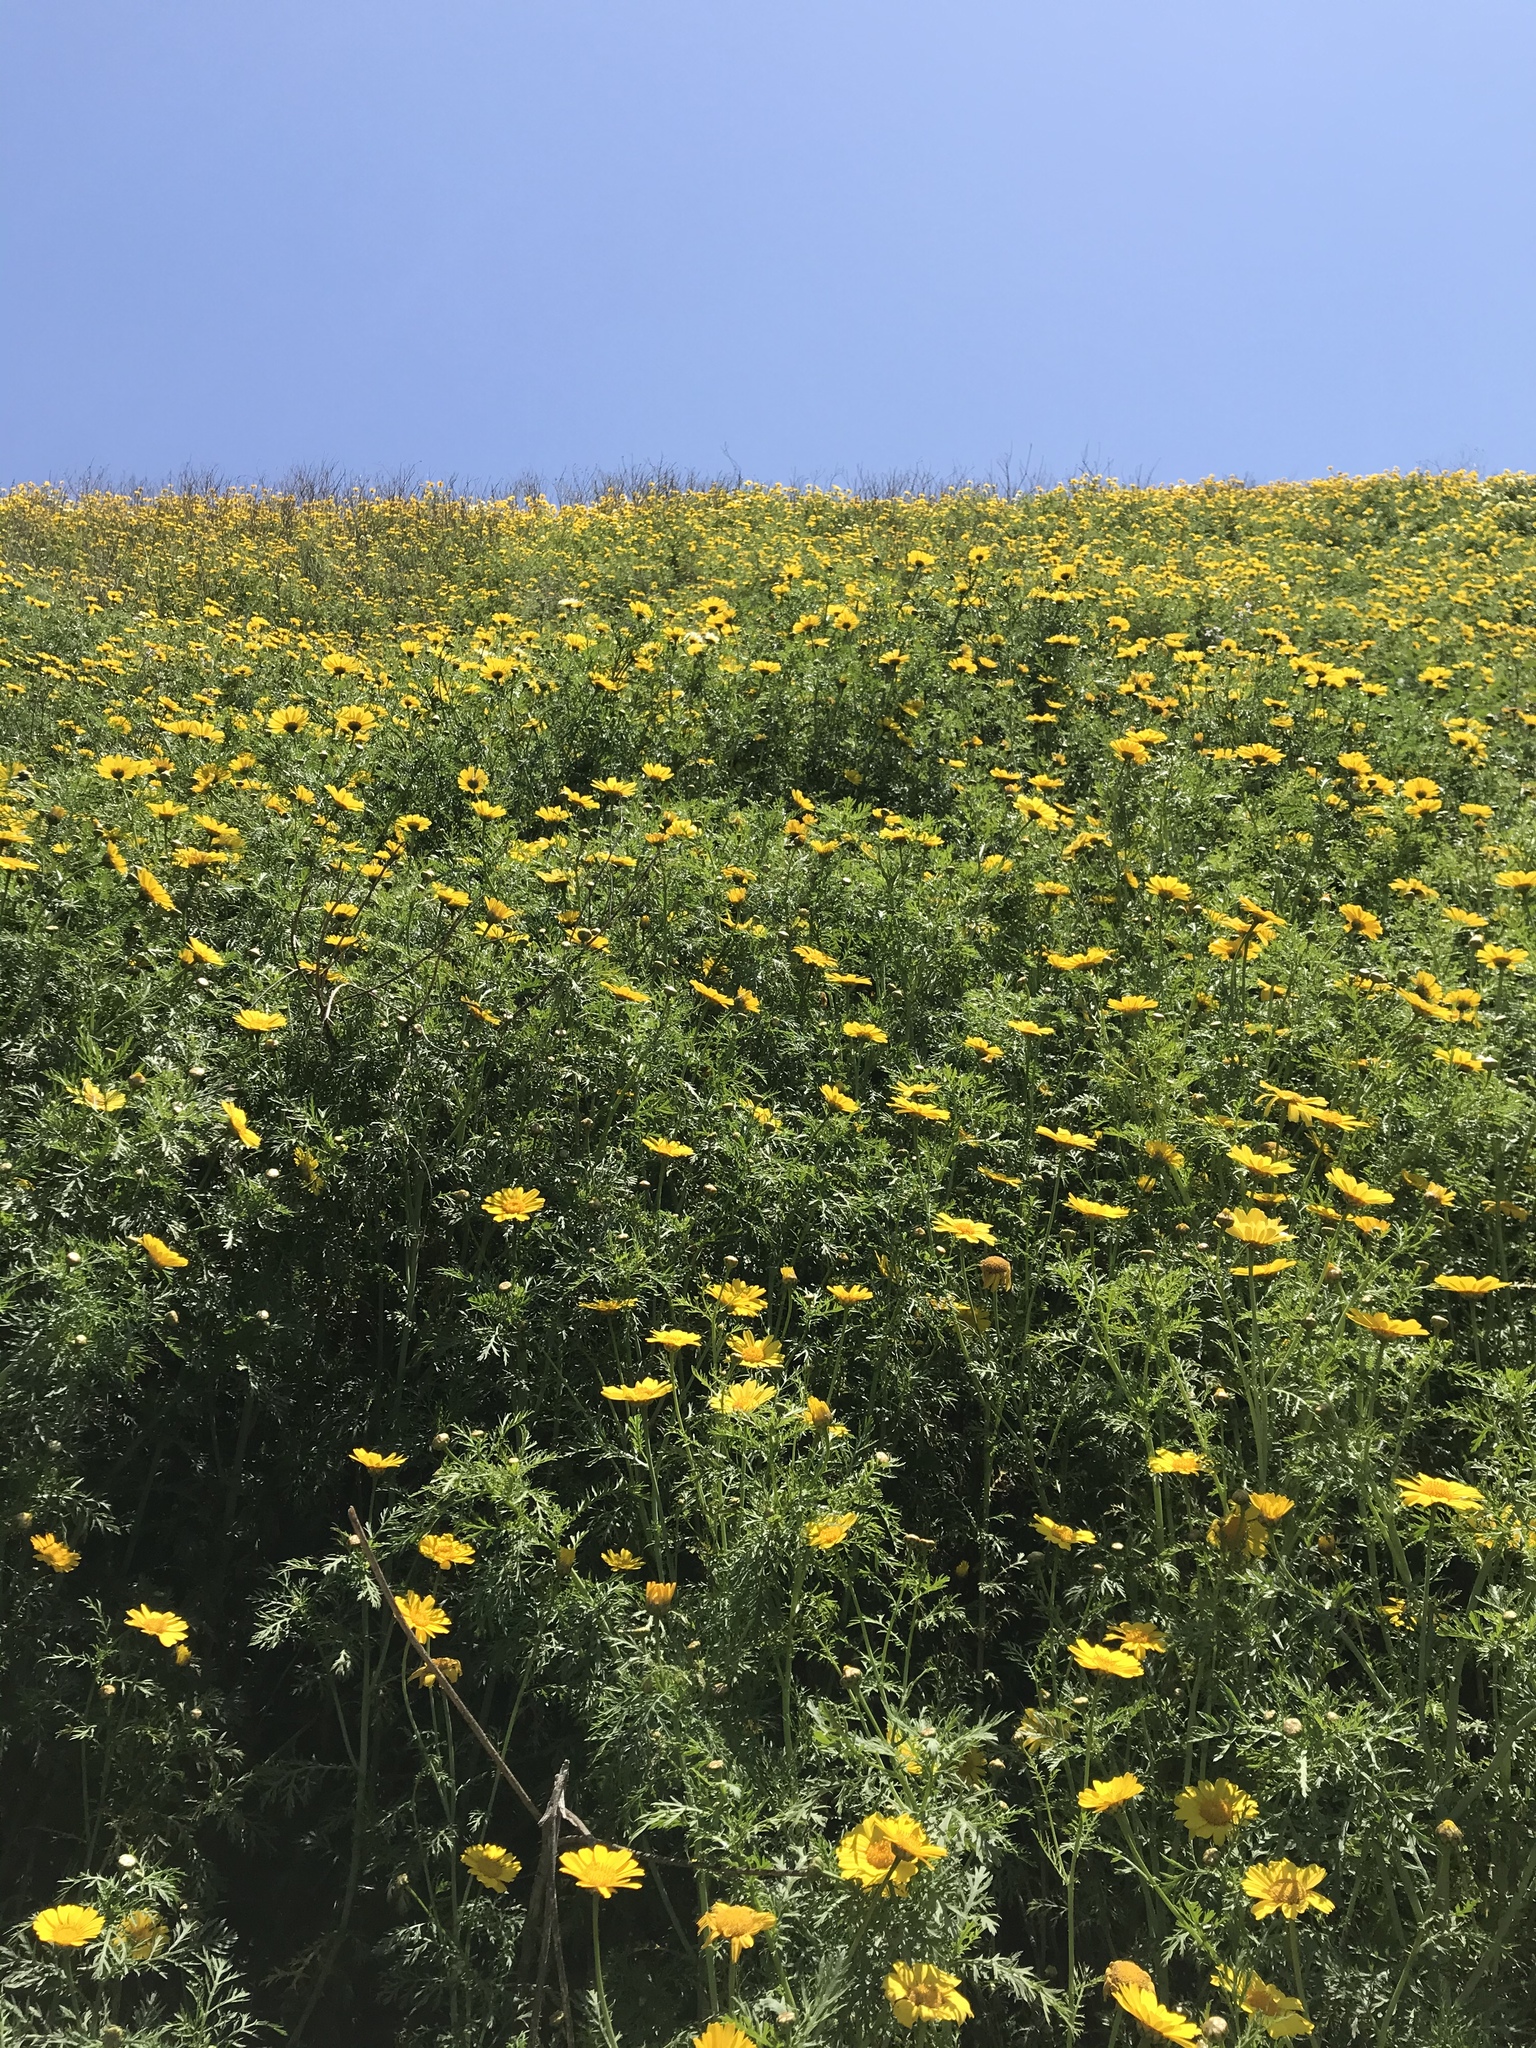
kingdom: Plantae
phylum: Tracheophyta
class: Magnoliopsida
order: Asterales
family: Asteraceae
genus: Glebionis
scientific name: Glebionis coronaria
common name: Crowndaisy
